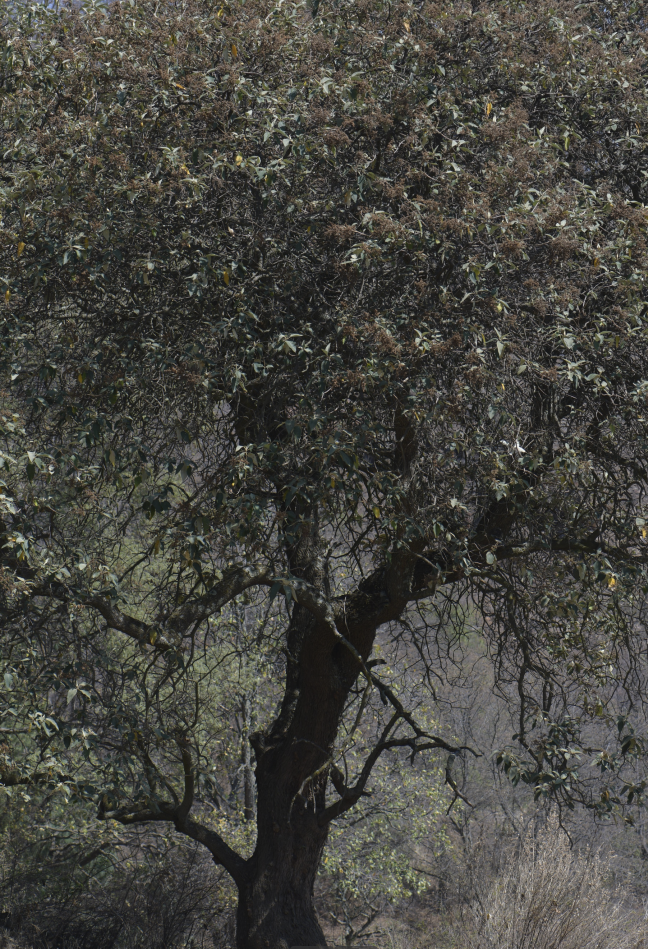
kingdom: Plantae
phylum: Tracheophyta
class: Magnoliopsida
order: Lamiales
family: Scrophulariaceae
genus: Buddleja
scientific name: Buddleja cordata
